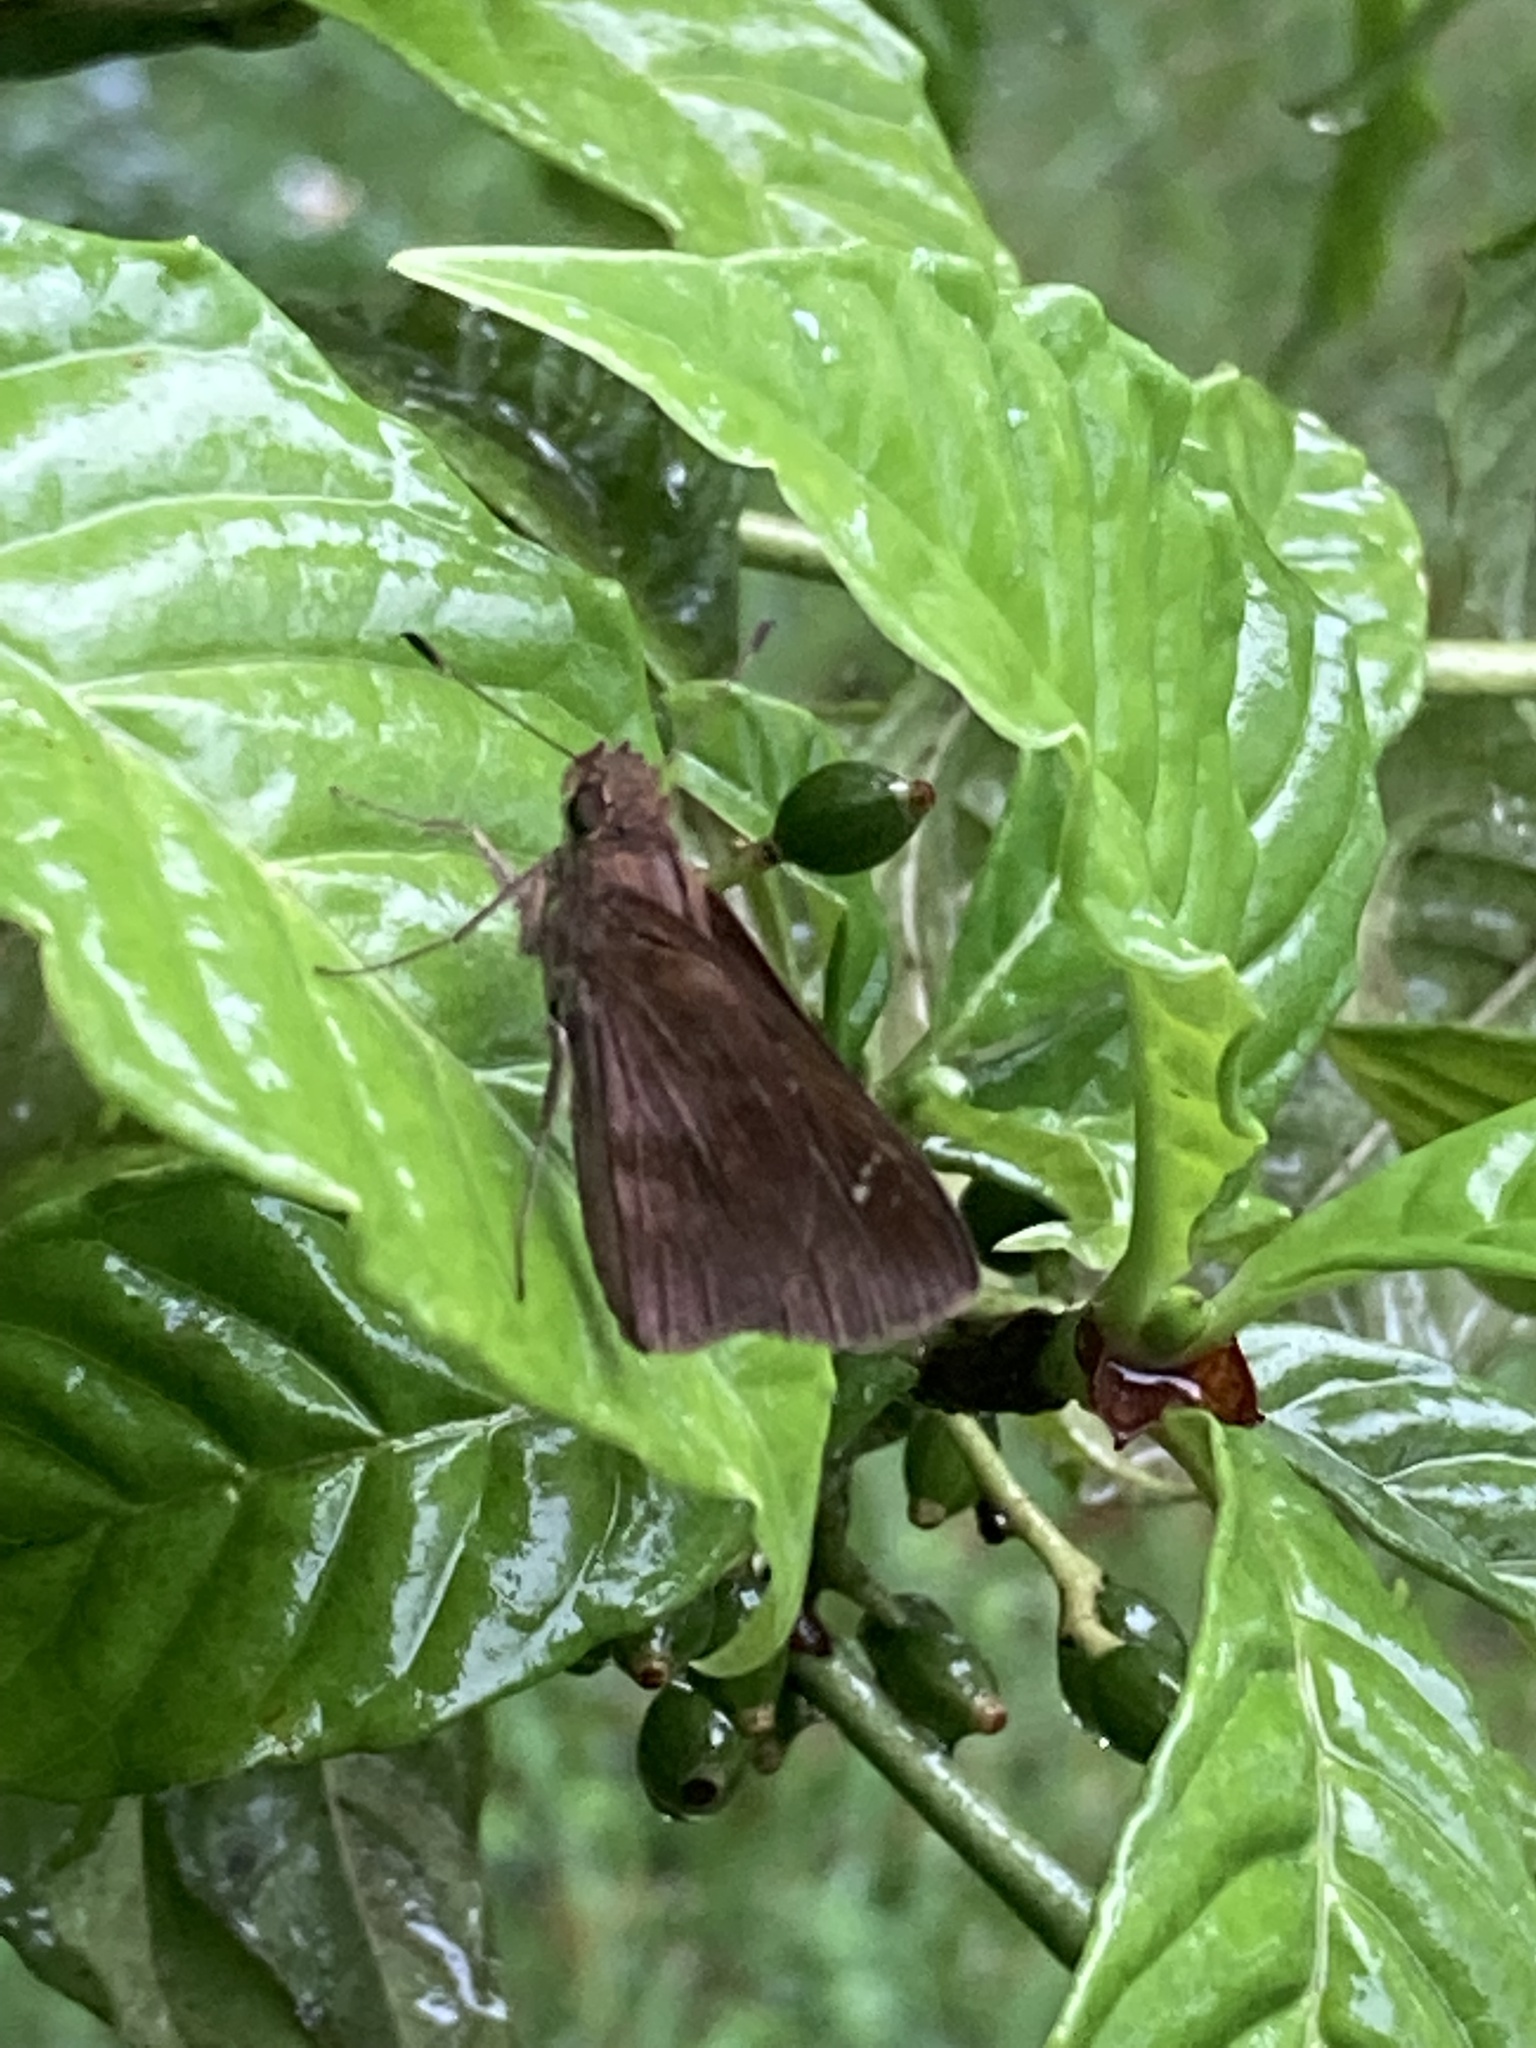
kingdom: Animalia
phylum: Arthropoda
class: Insecta
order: Lepidoptera
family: Hesperiidae
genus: Lerema
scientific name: Lerema accius
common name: Clouded skipper
